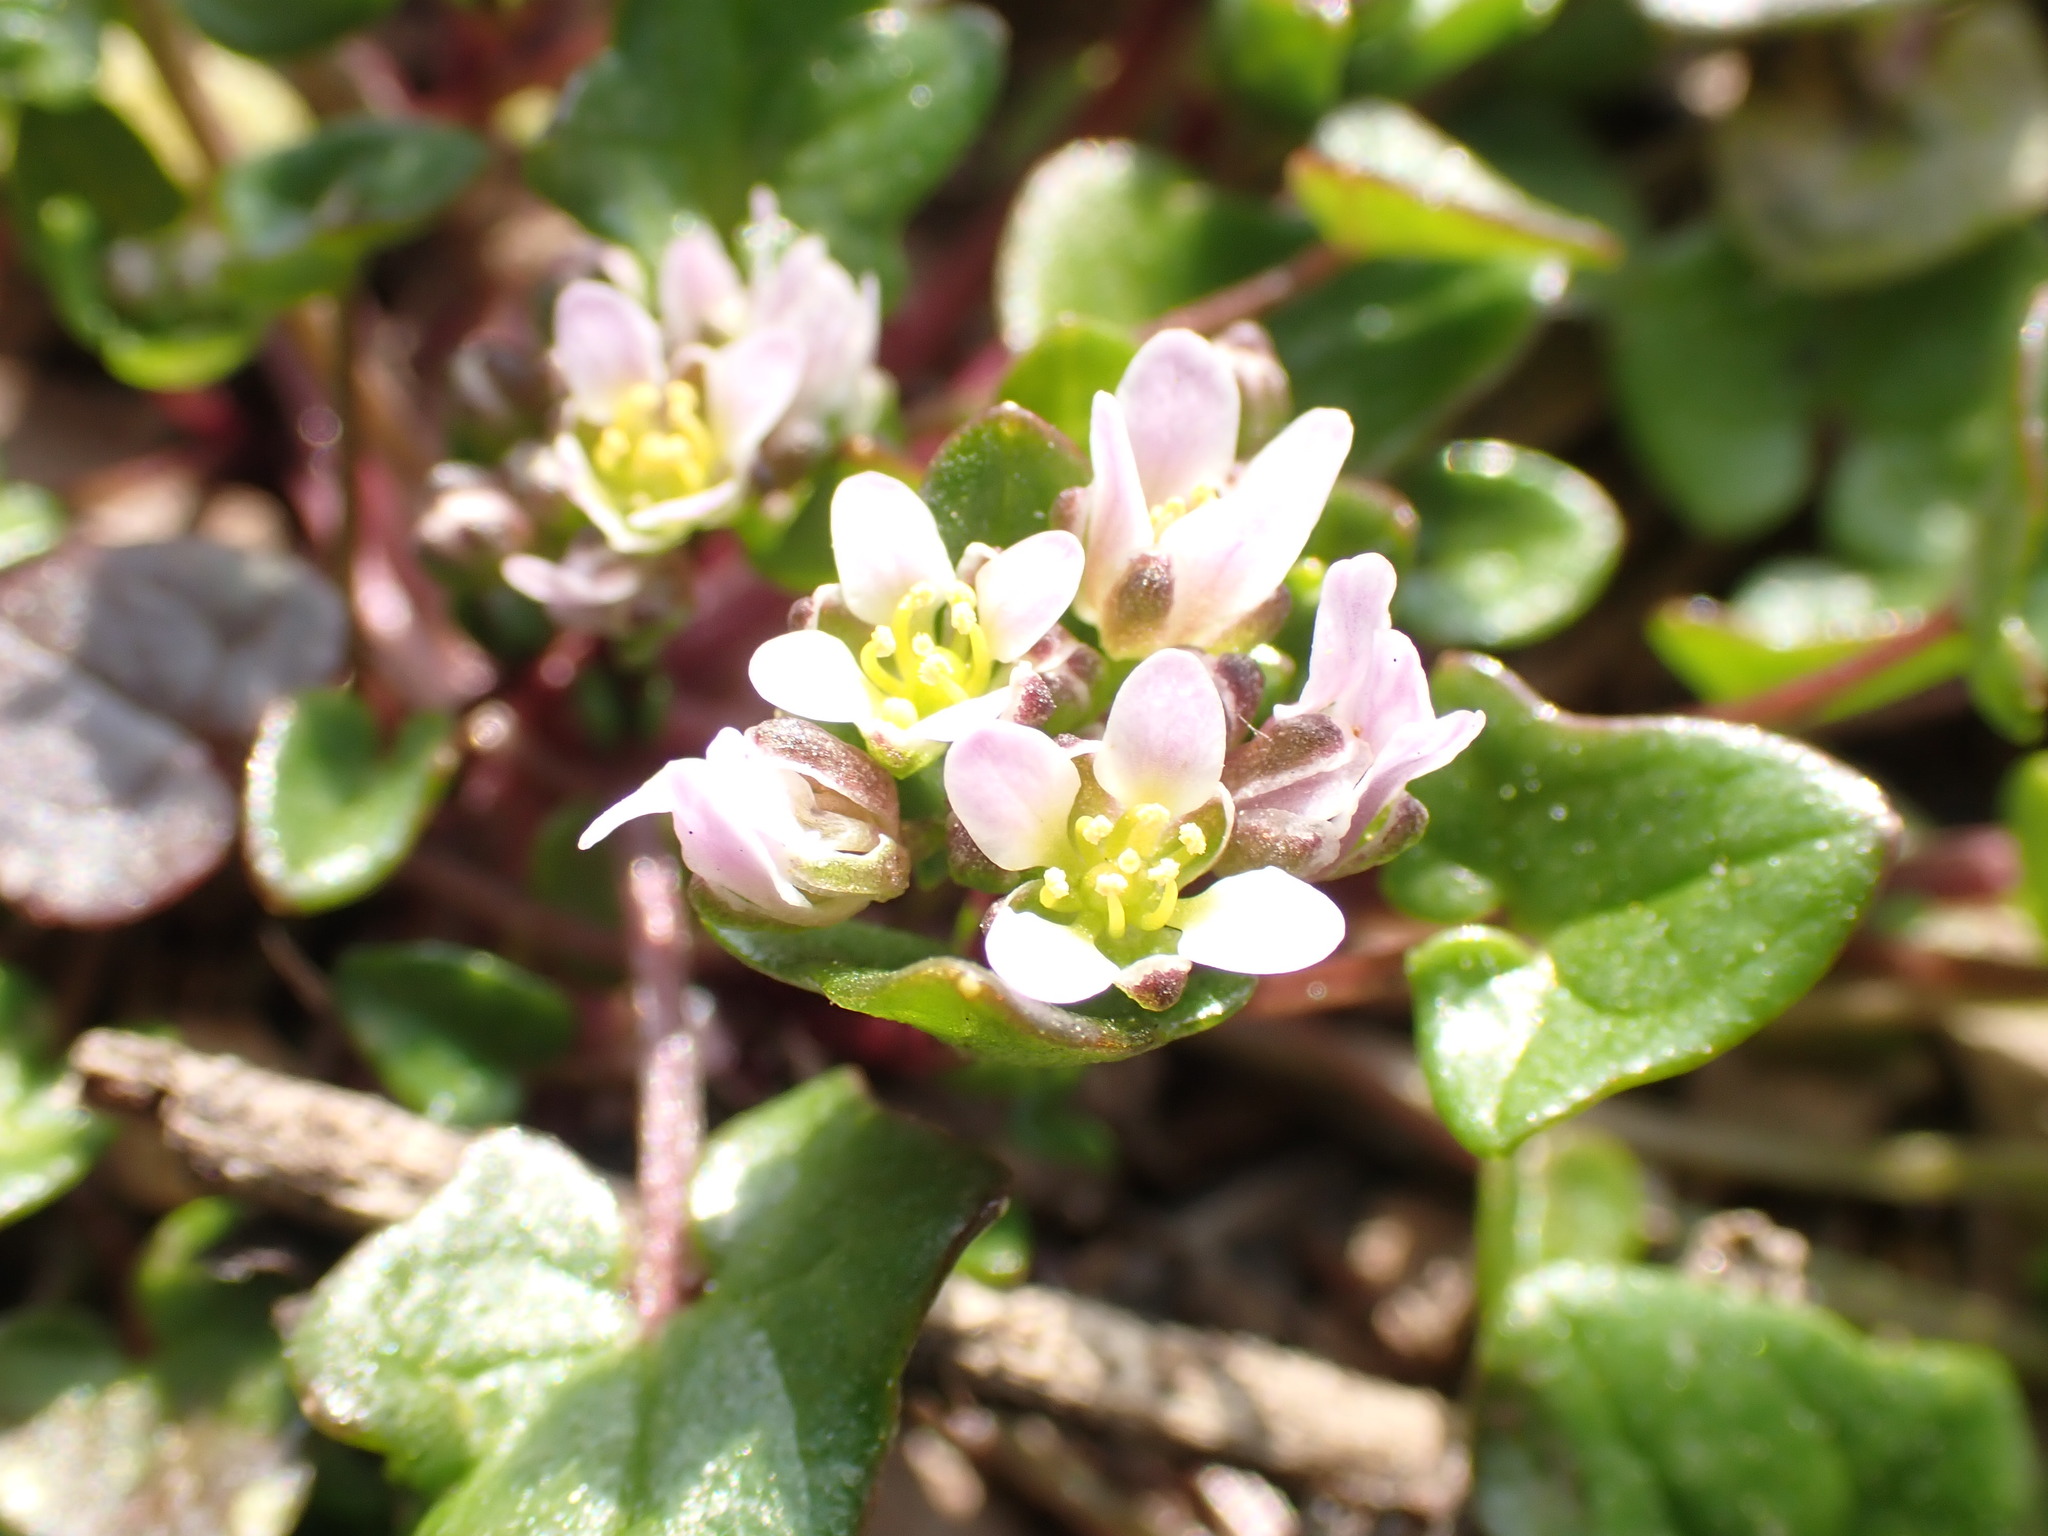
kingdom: Plantae
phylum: Tracheophyta
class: Magnoliopsida
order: Brassicales
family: Brassicaceae
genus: Cochlearia
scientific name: Cochlearia danica
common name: Early scurvygrass
